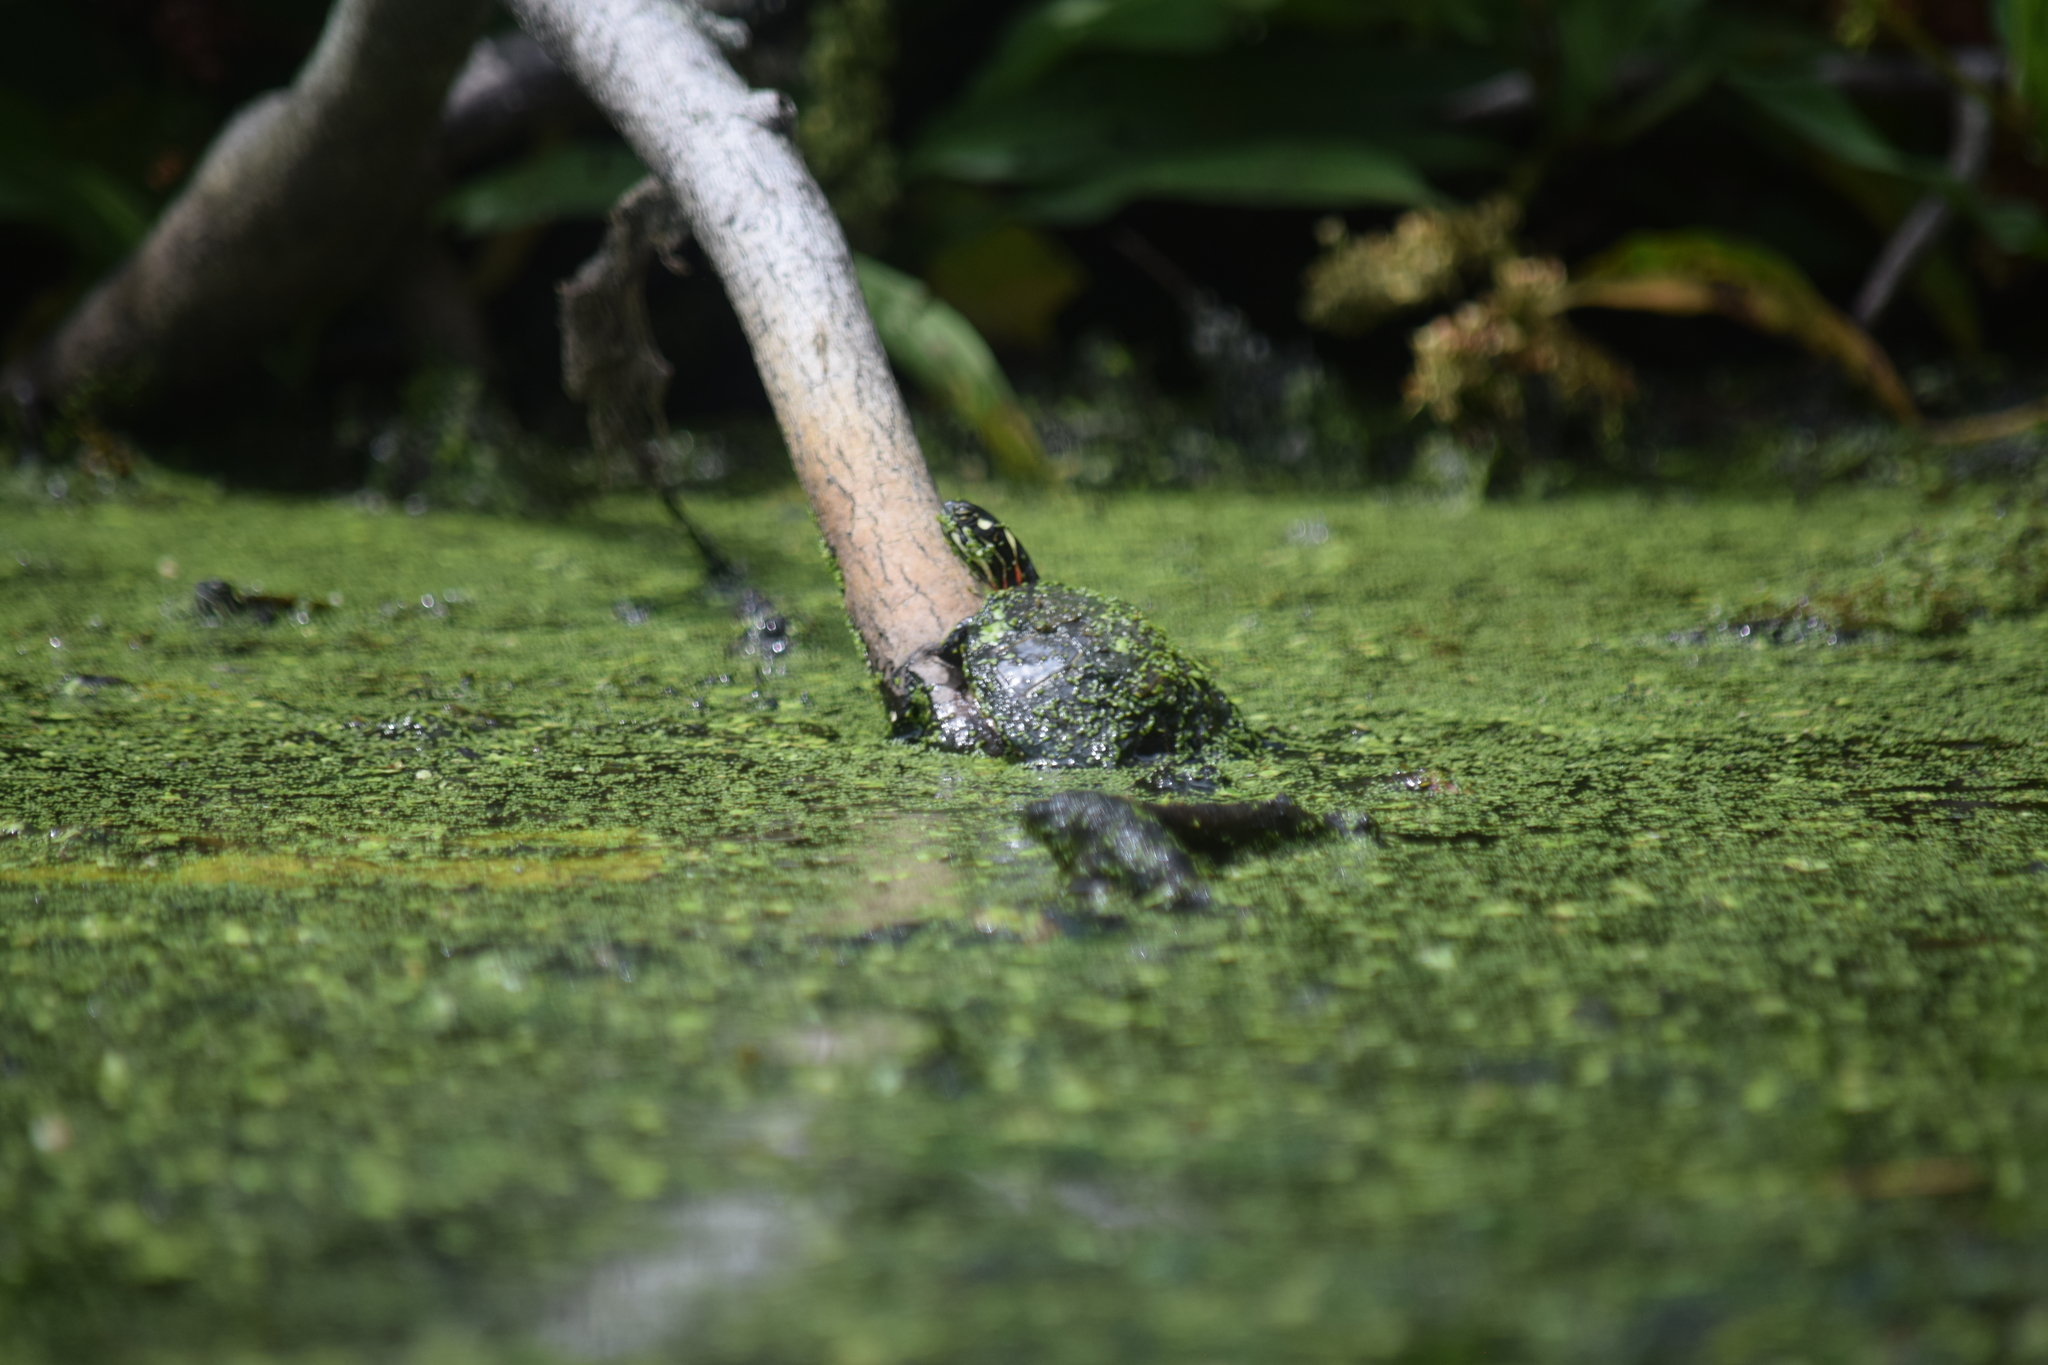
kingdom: Animalia
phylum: Chordata
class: Testudines
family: Emydidae
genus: Chrysemys
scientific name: Chrysemys picta
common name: Painted turtle
